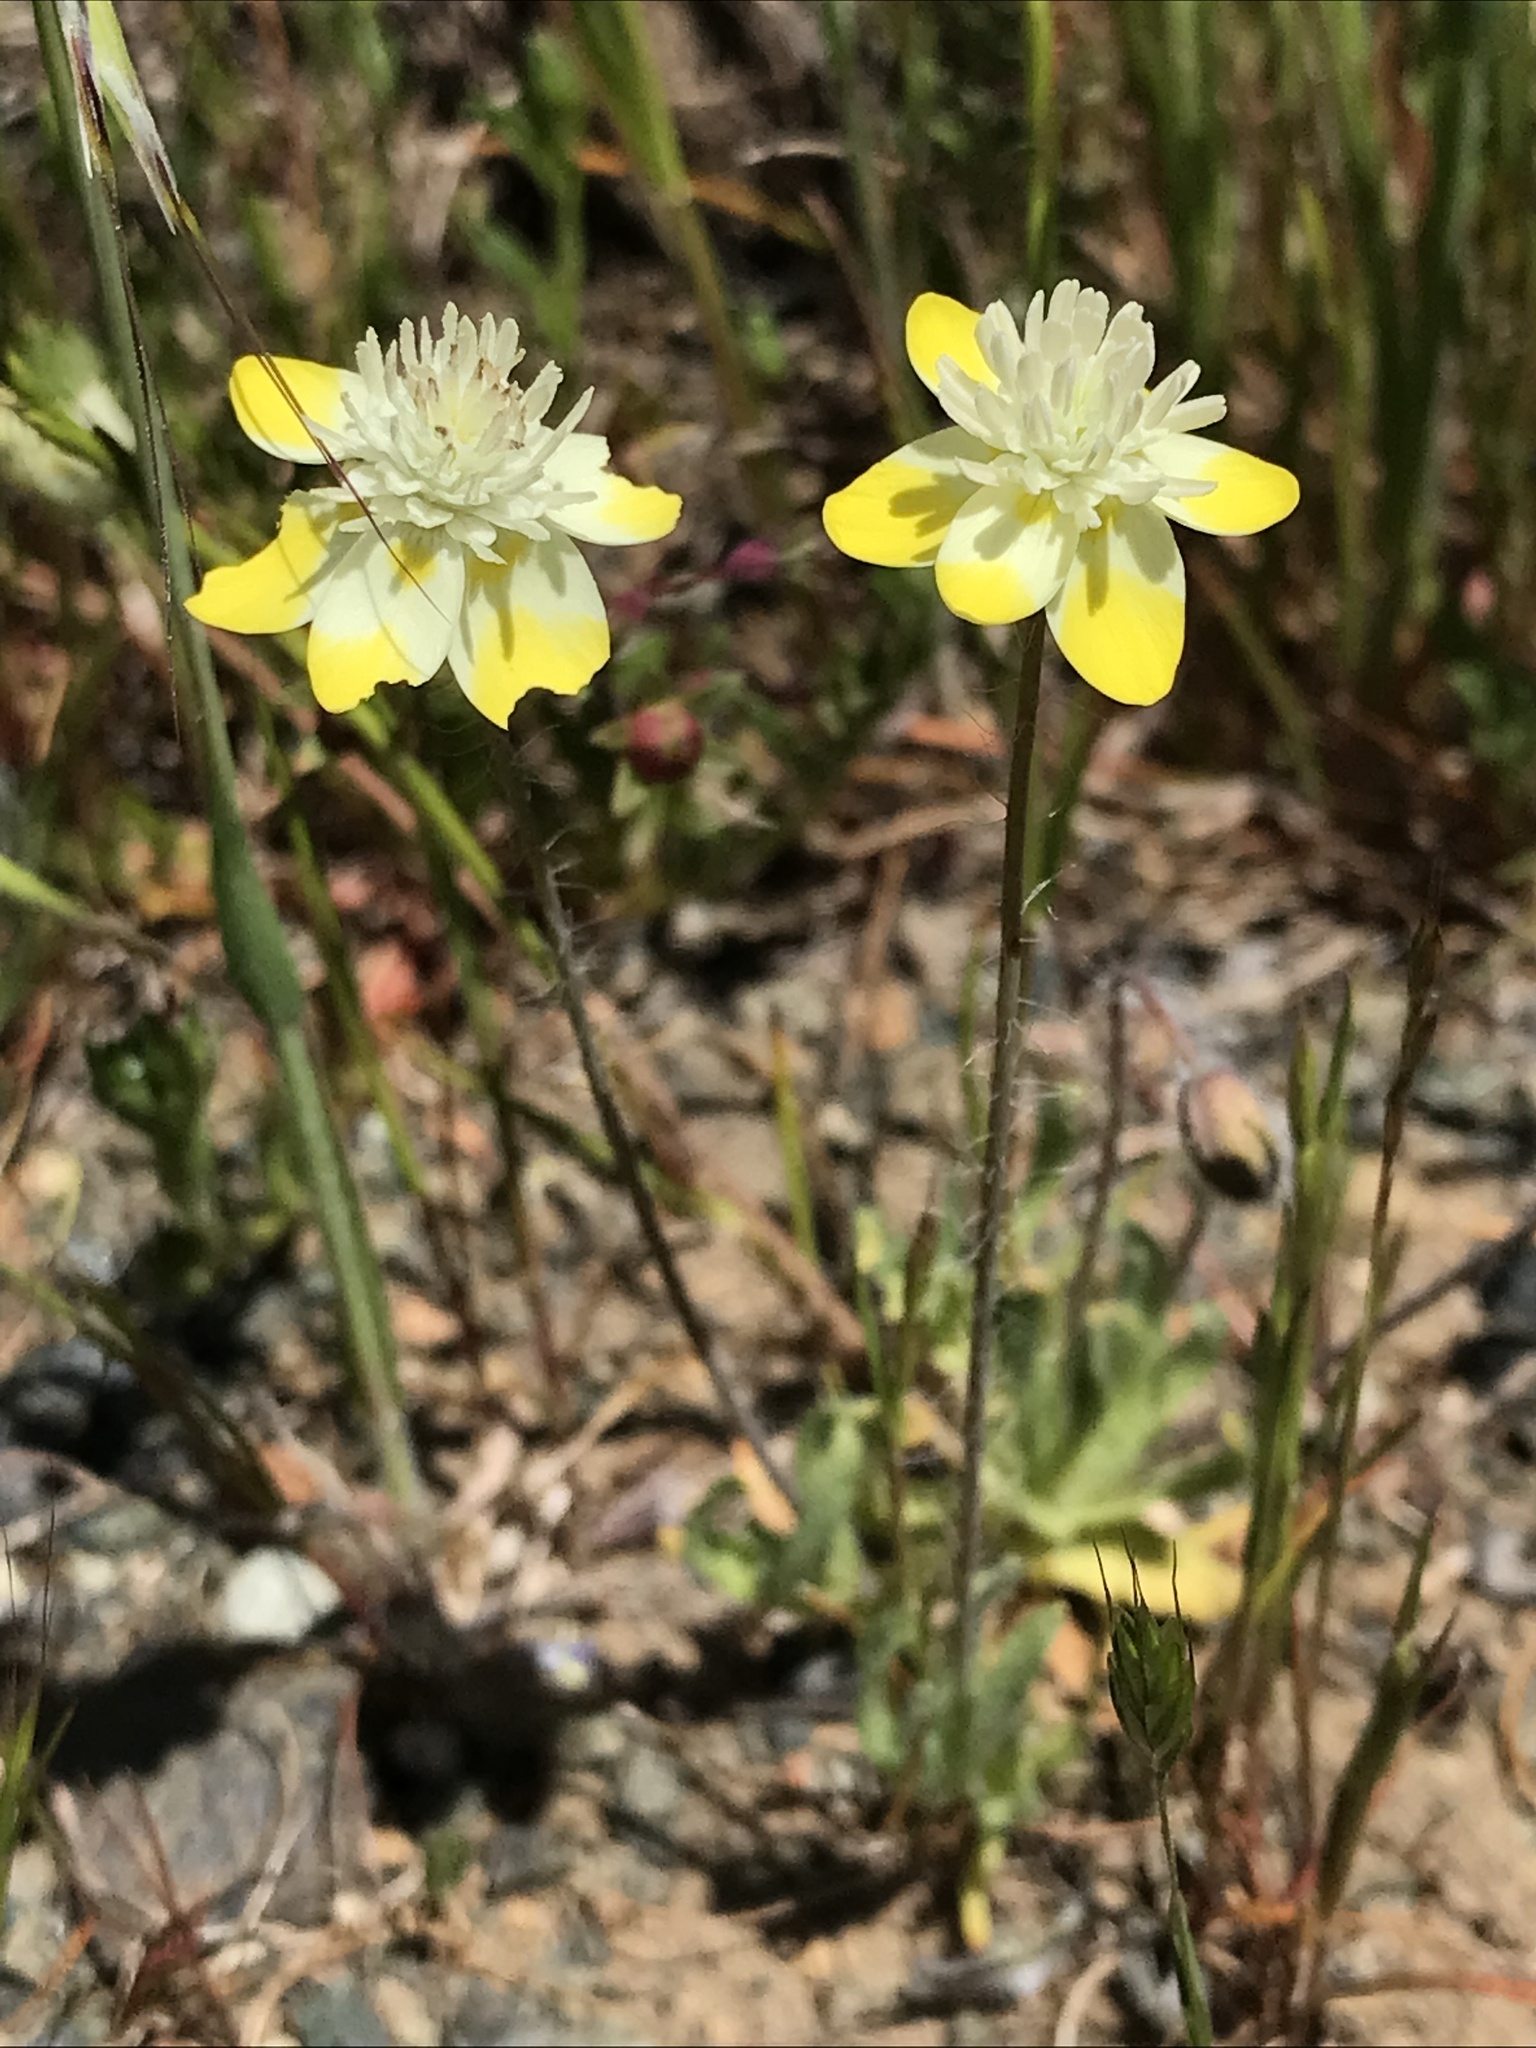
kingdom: Plantae
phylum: Tracheophyta
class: Magnoliopsida
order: Ranunculales
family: Papaveraceae
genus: Platystemon
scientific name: Platystemon californicus
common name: Cream-cups
